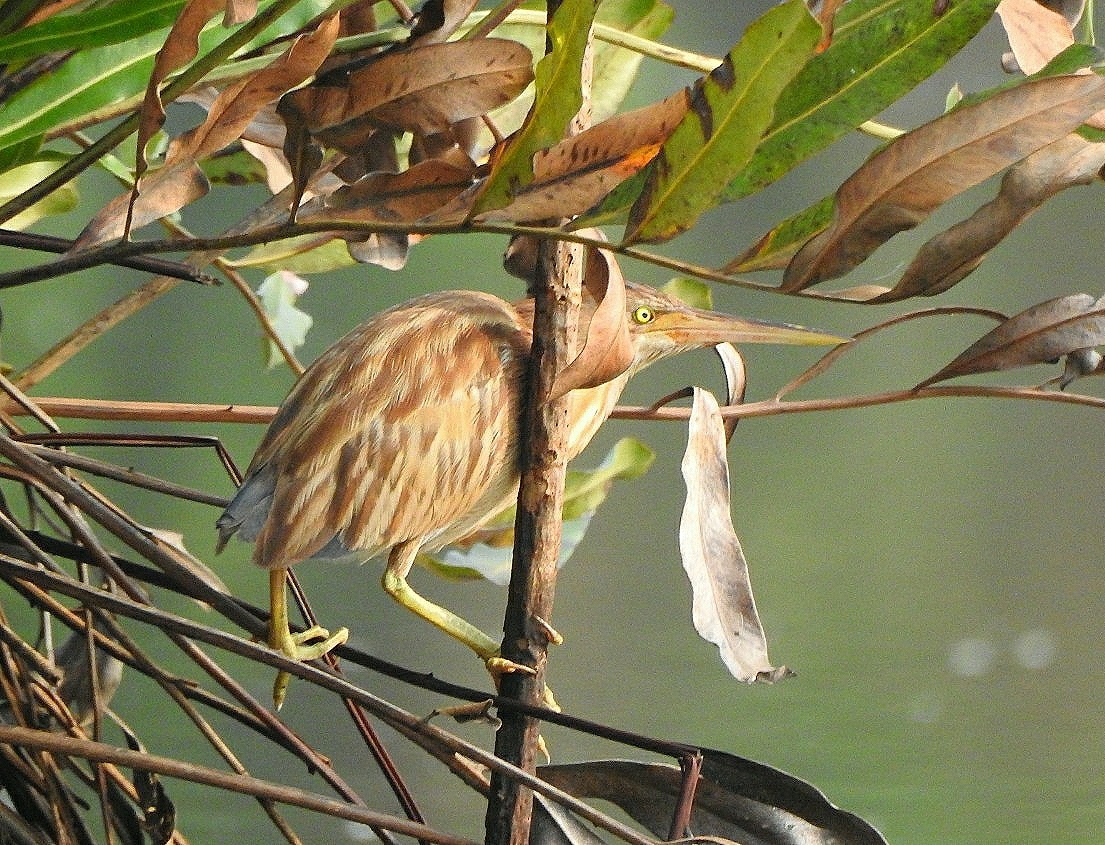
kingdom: Animalia
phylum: Chordata
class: Aves
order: Pelecaniformes
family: Ardeidae
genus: Ixobrychus
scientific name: Ixobrychus sinensis
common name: Yellow bittern
